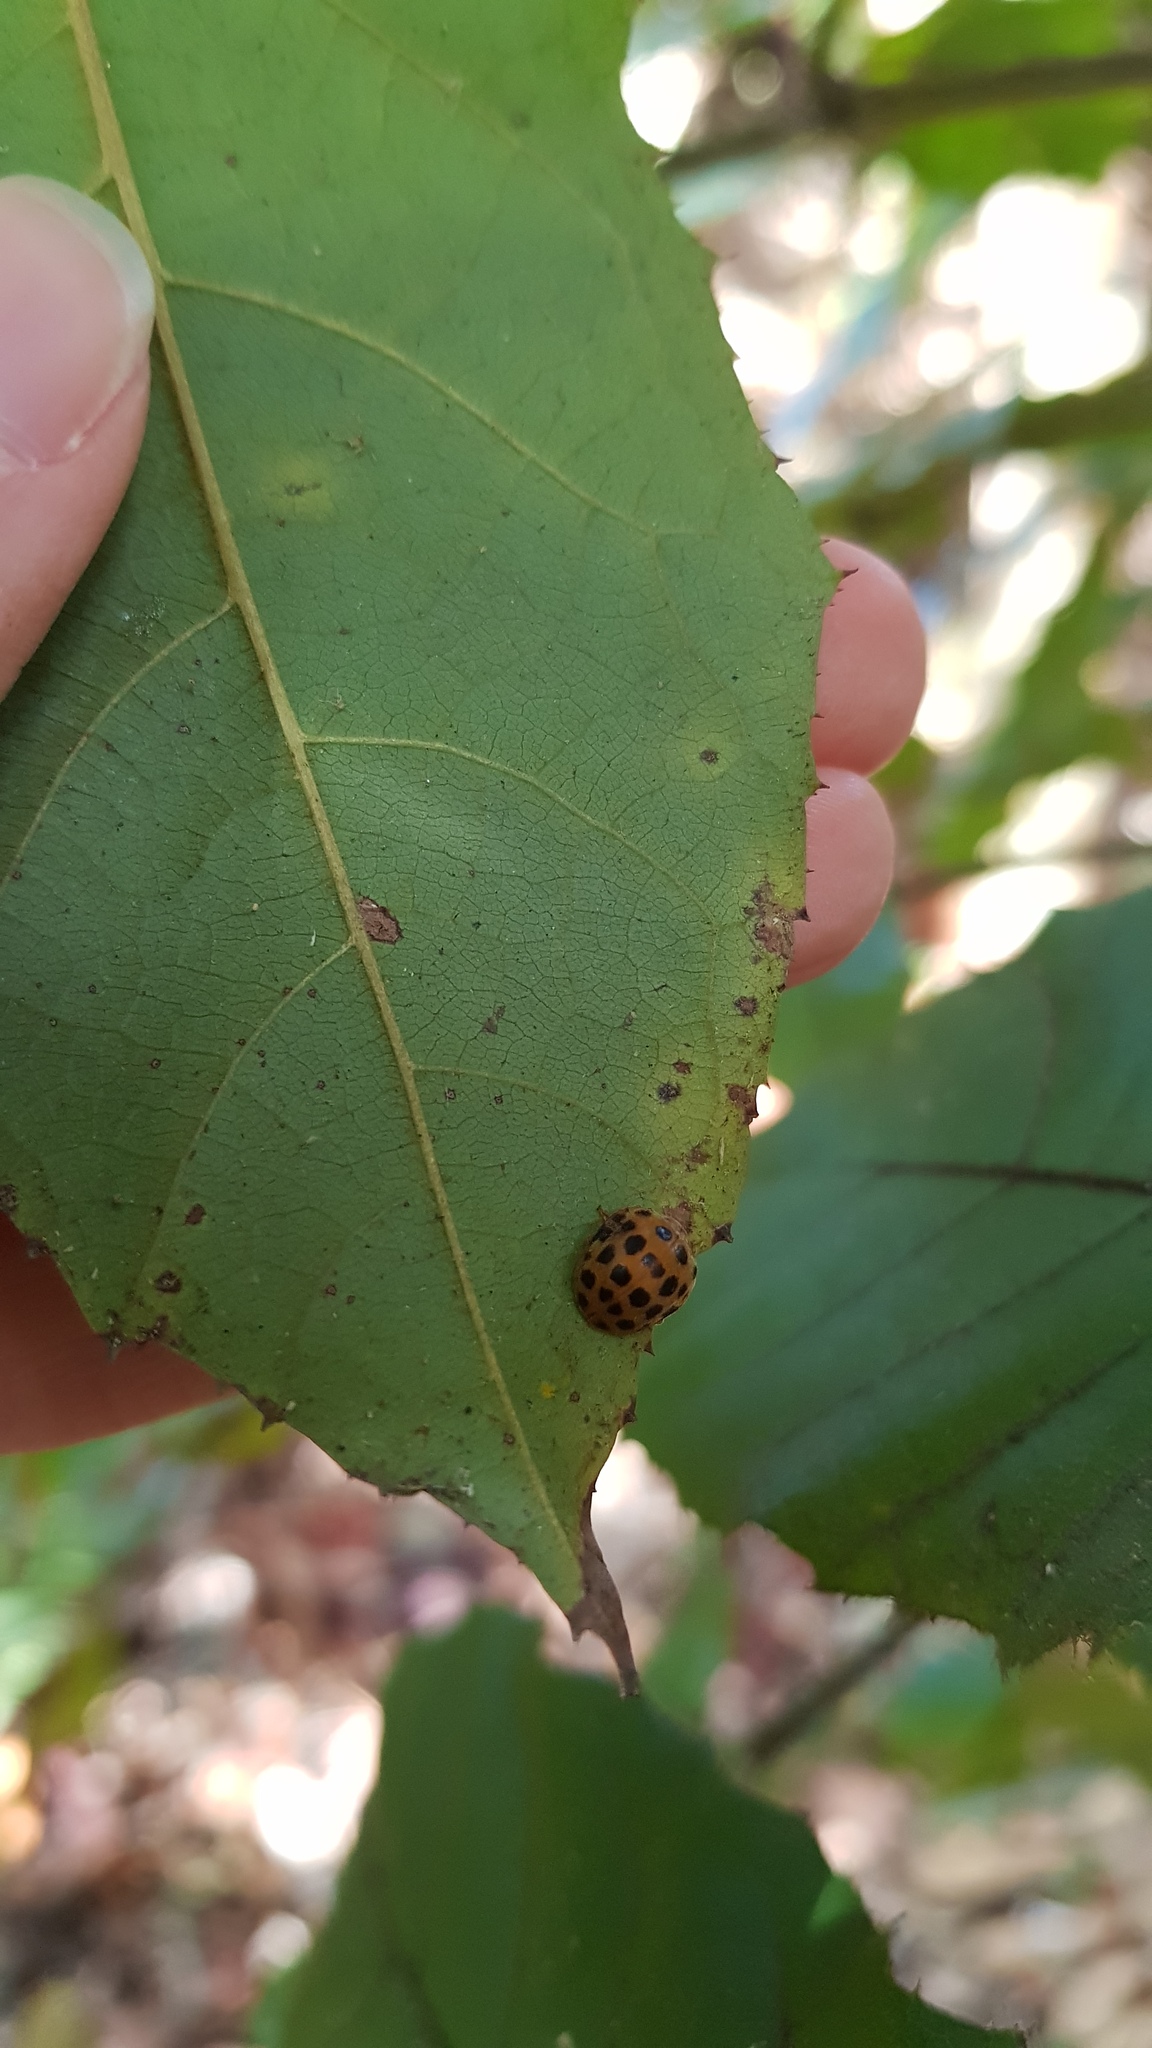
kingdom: Animalia
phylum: Arthropoda
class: Insecta
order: Coleoptera
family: Coccinellidae
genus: Henosepilachna
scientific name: Henosepilachna vigintioctopunctata
